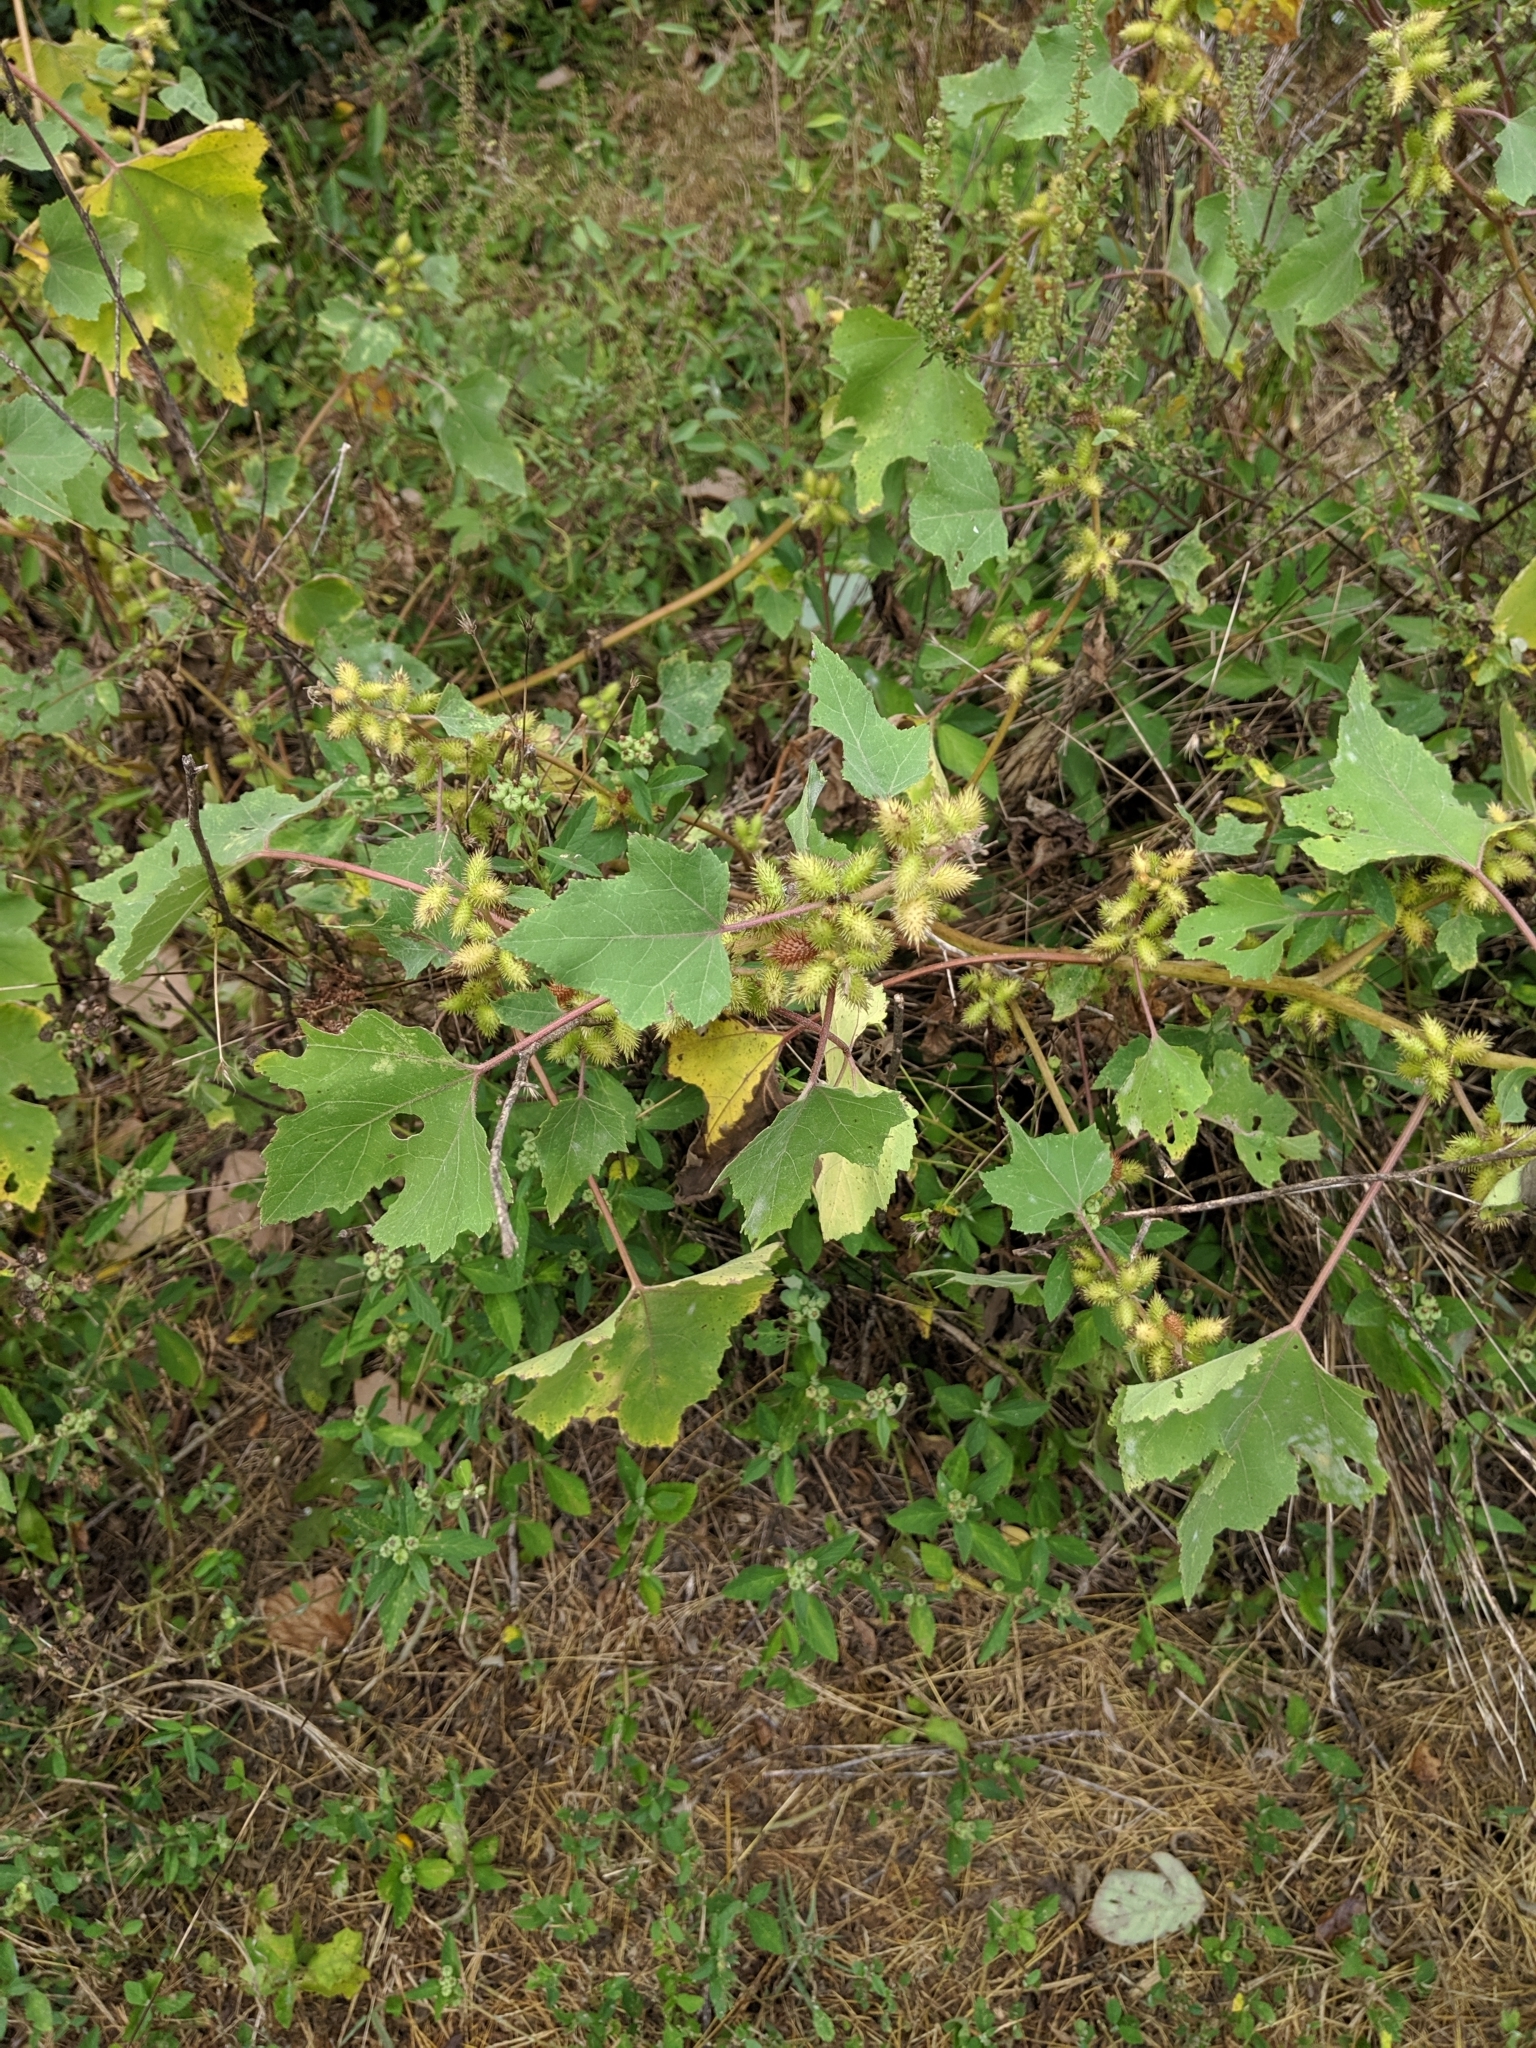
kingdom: Plantae
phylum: Tracheophyta
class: Magnoliopsida
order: Asterales
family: Asteraceae
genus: Xanthium
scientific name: Xanthium strumarium
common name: Rough cocklebur
